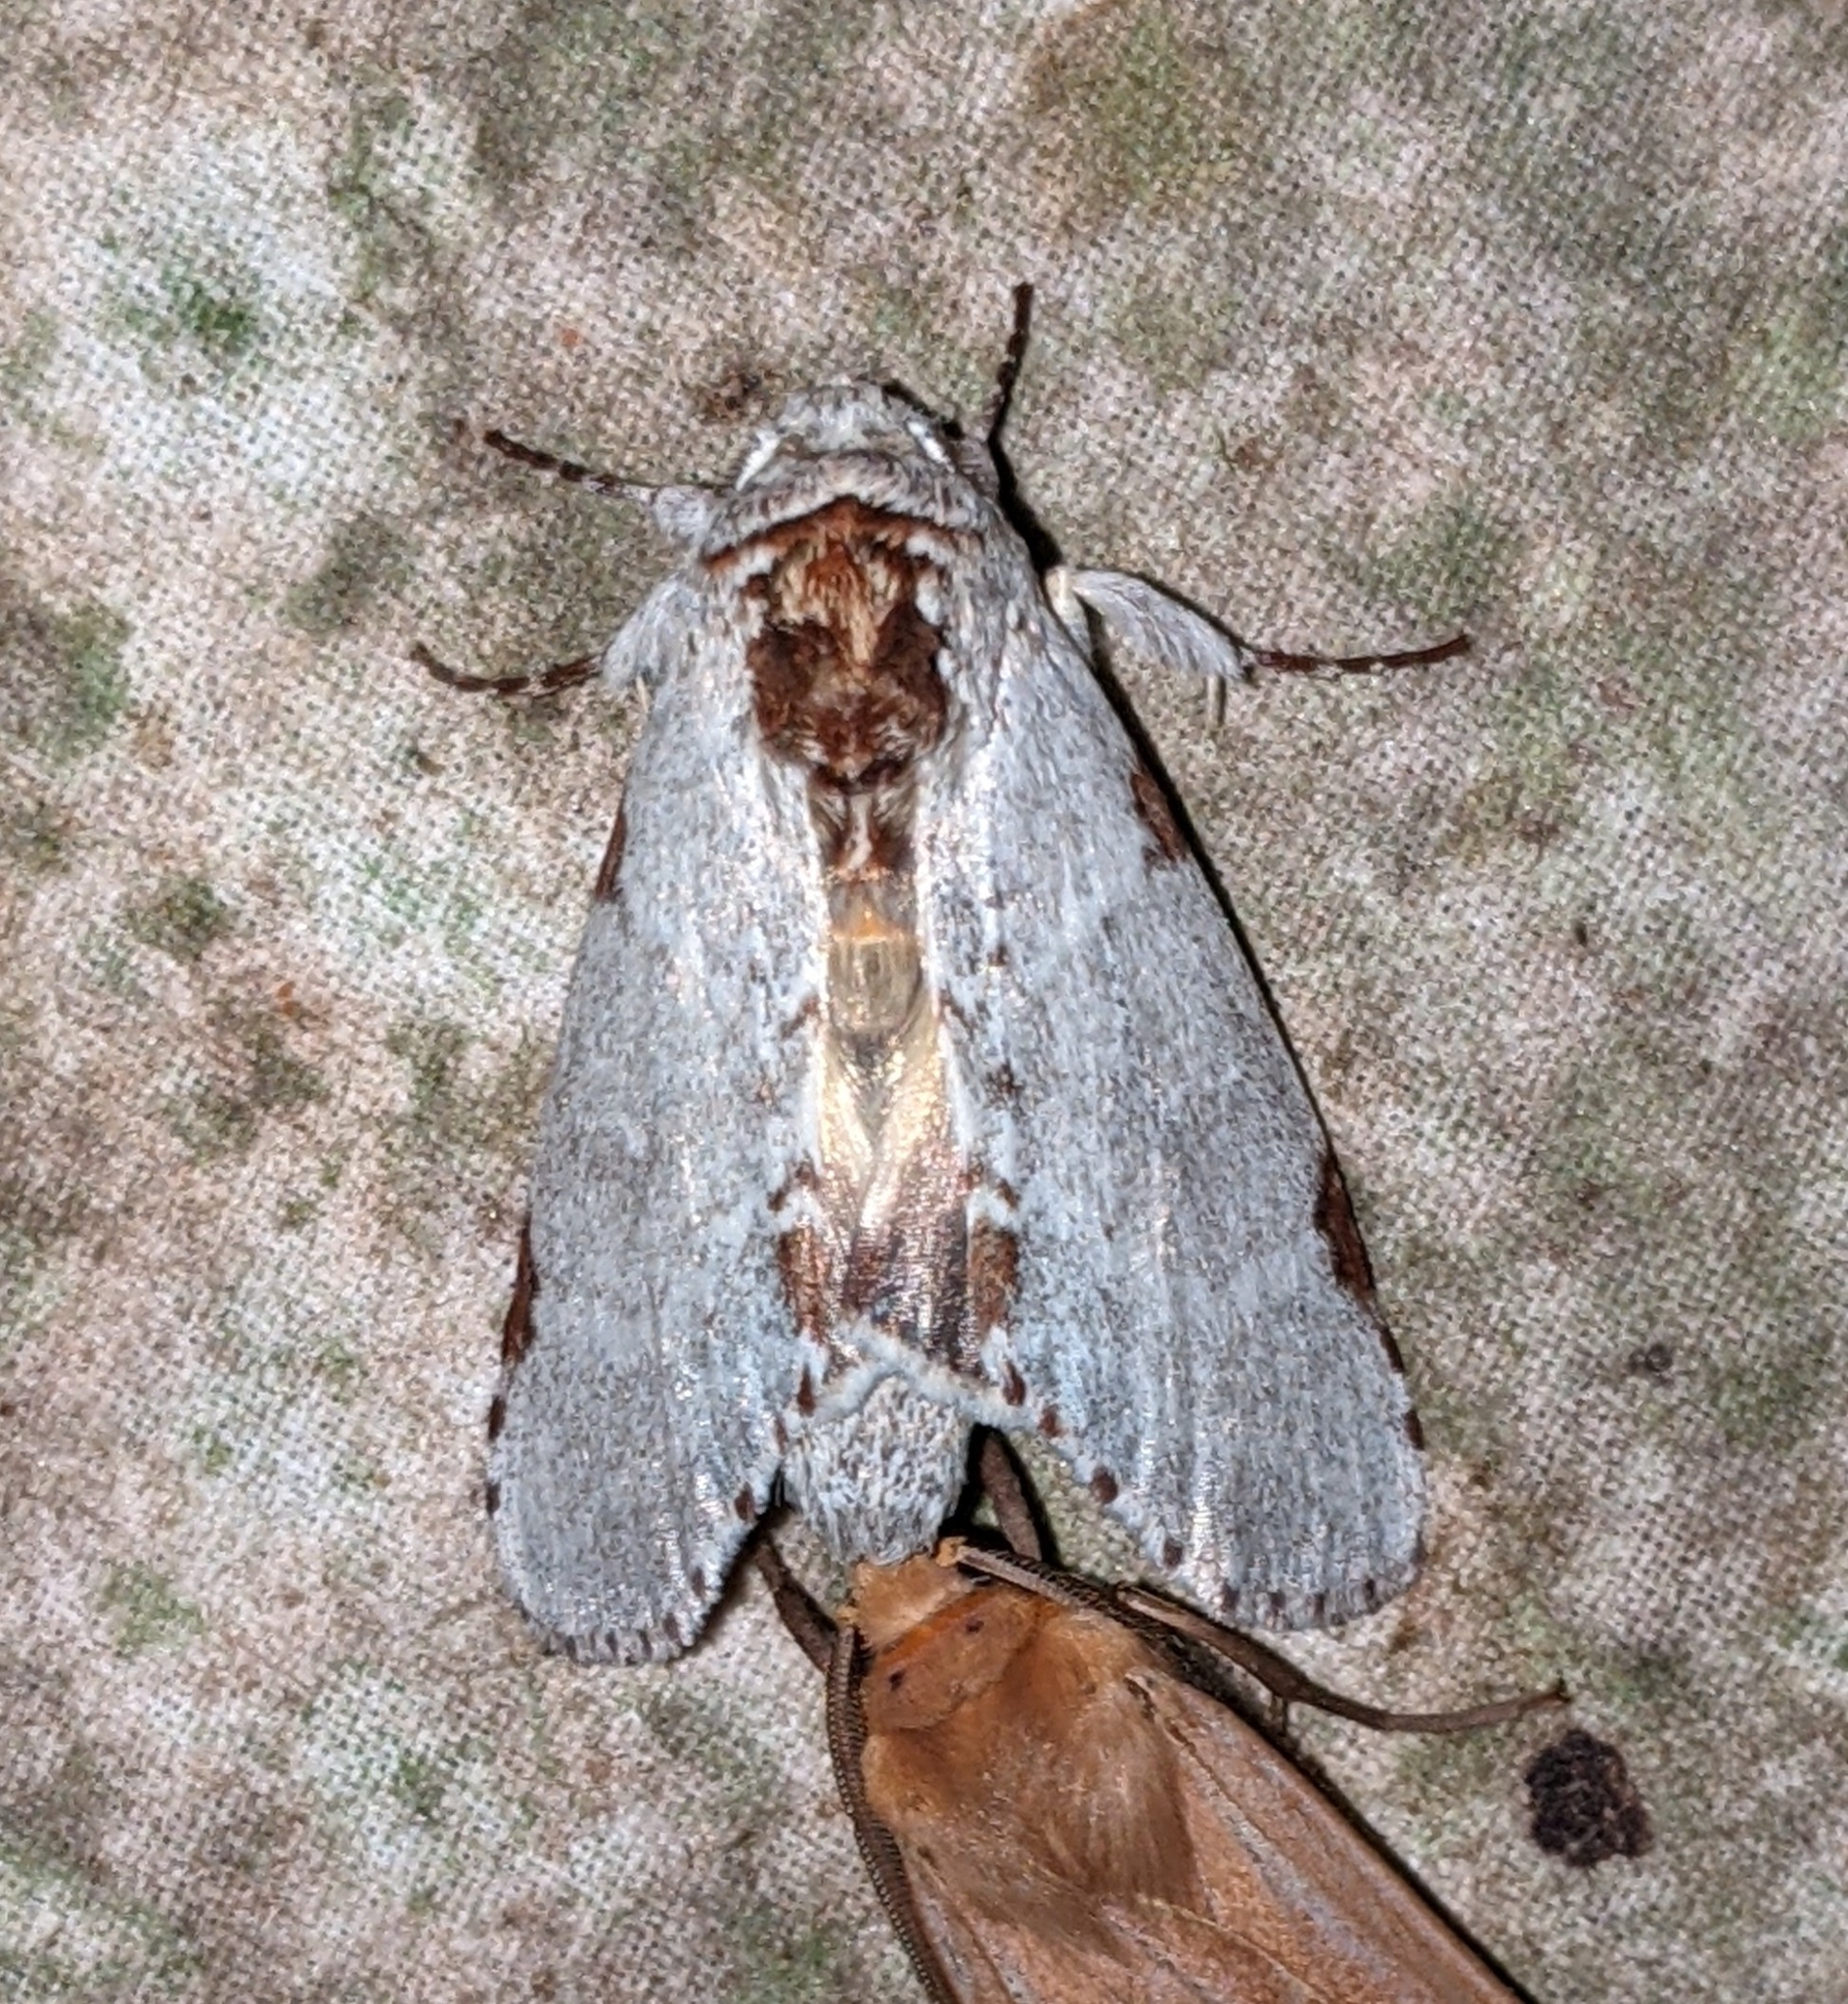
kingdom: Animalia
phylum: Arthropoda
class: Insecta
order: Lepidoptera
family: Notodontidae
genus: Malocampa
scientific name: Malocampa albolineata
